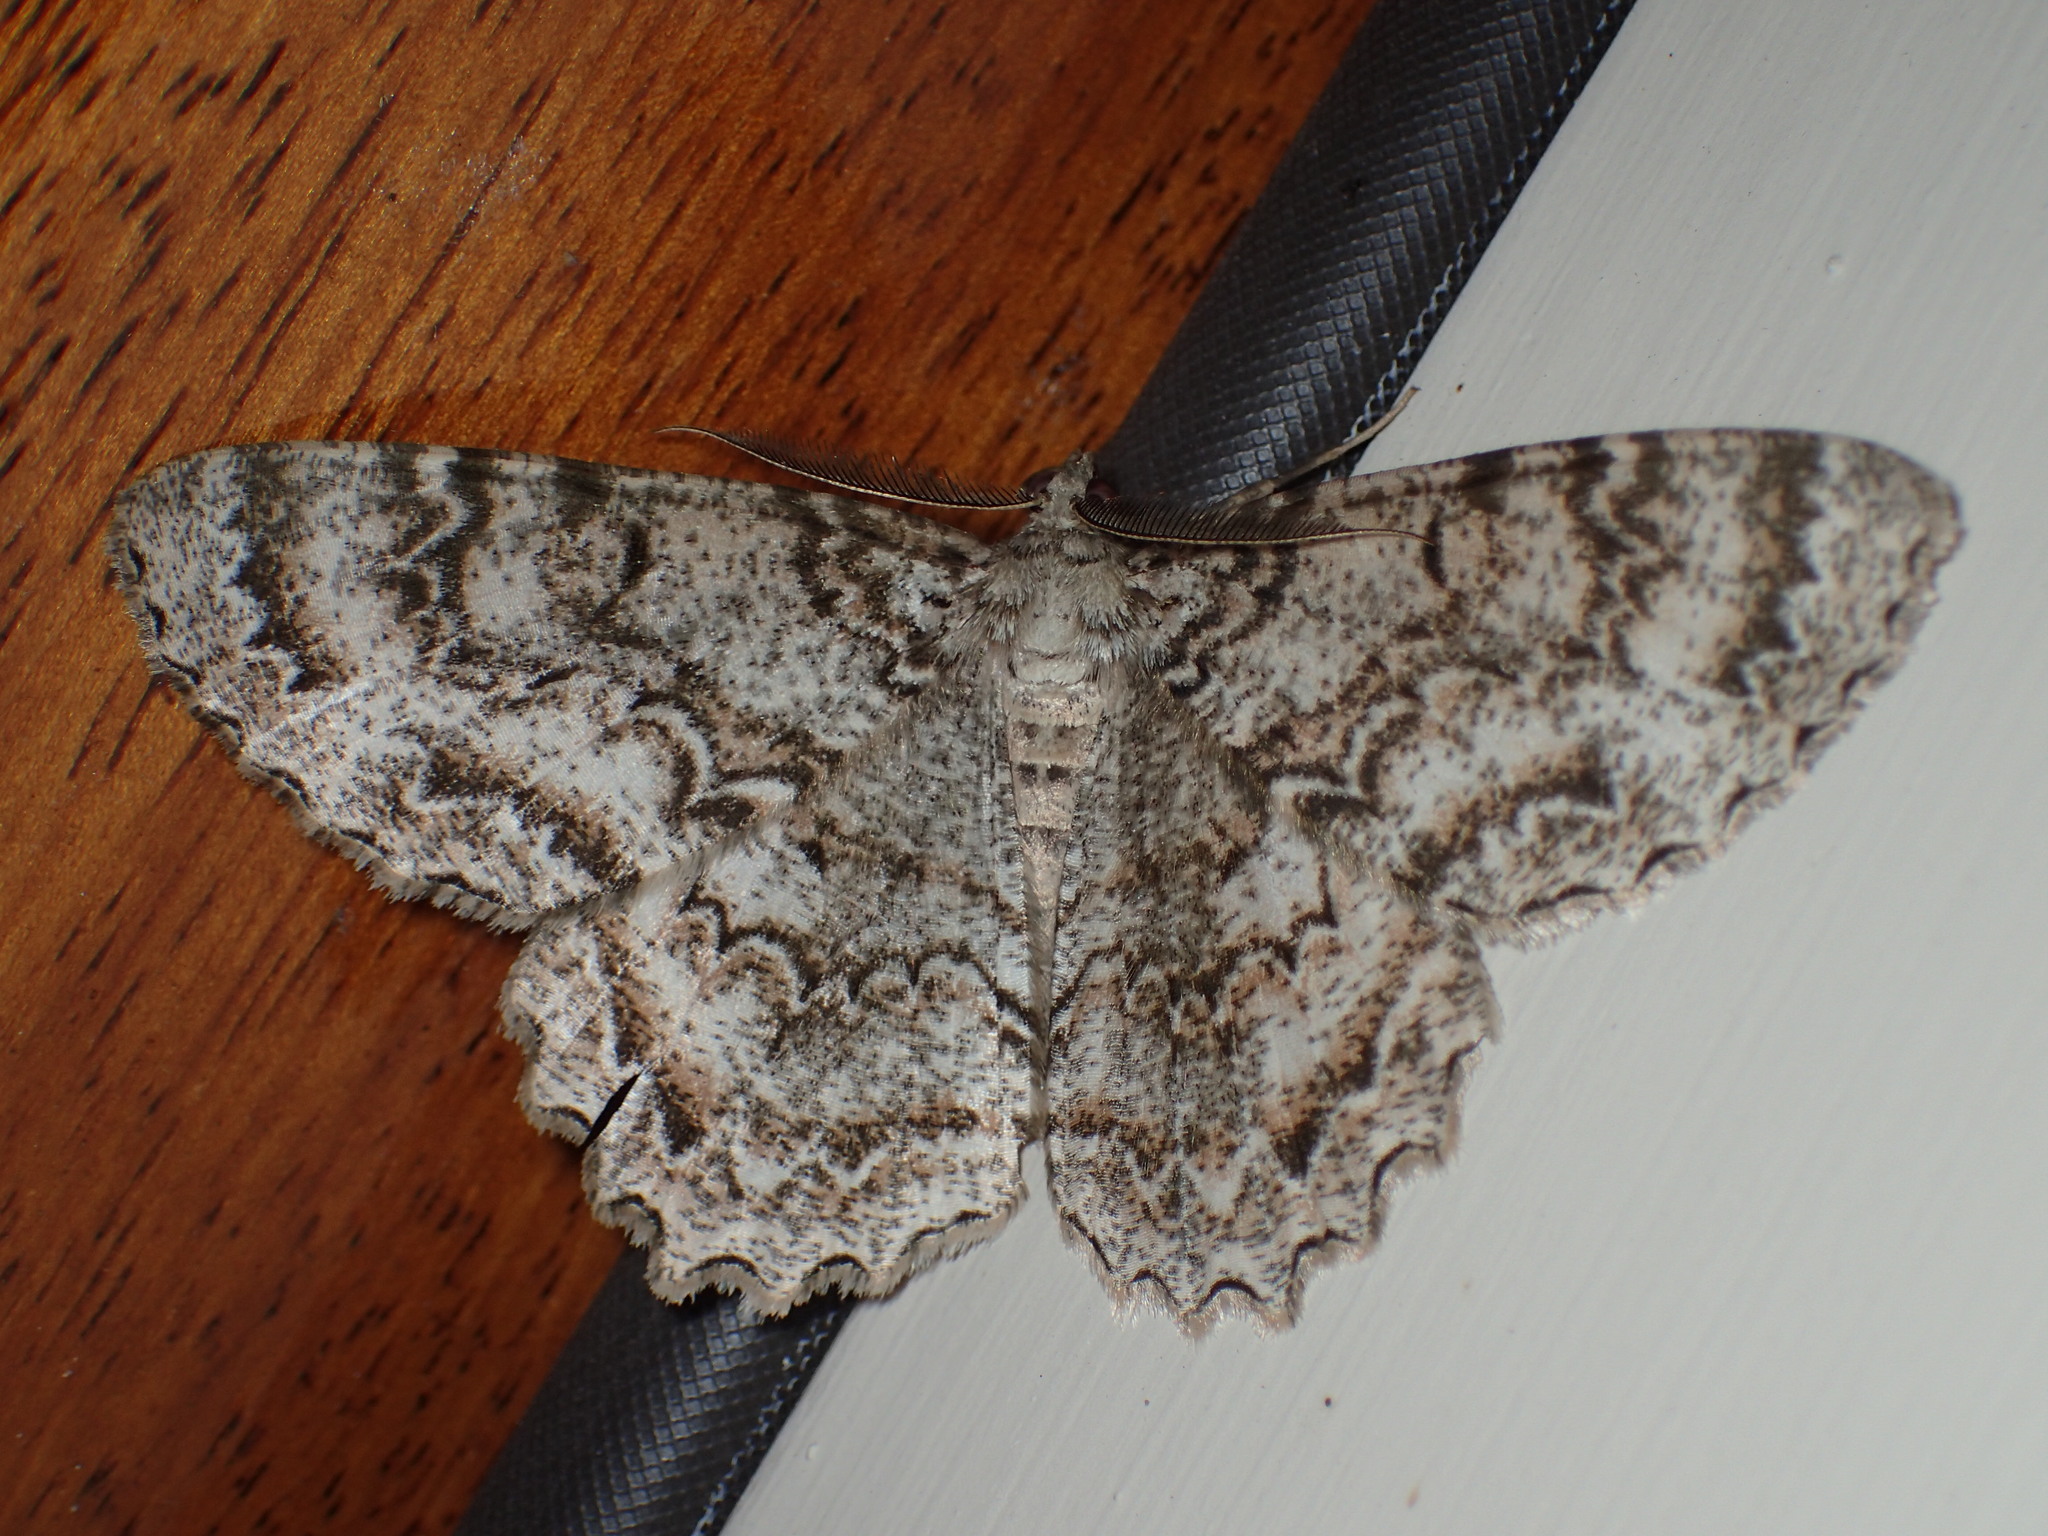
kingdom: Animalia
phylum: Arthropoda
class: Insecta
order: Lepidoptera
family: Geometridae
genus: Epimecis
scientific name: Epimecis hortaria
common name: Tulip-tree beauty
